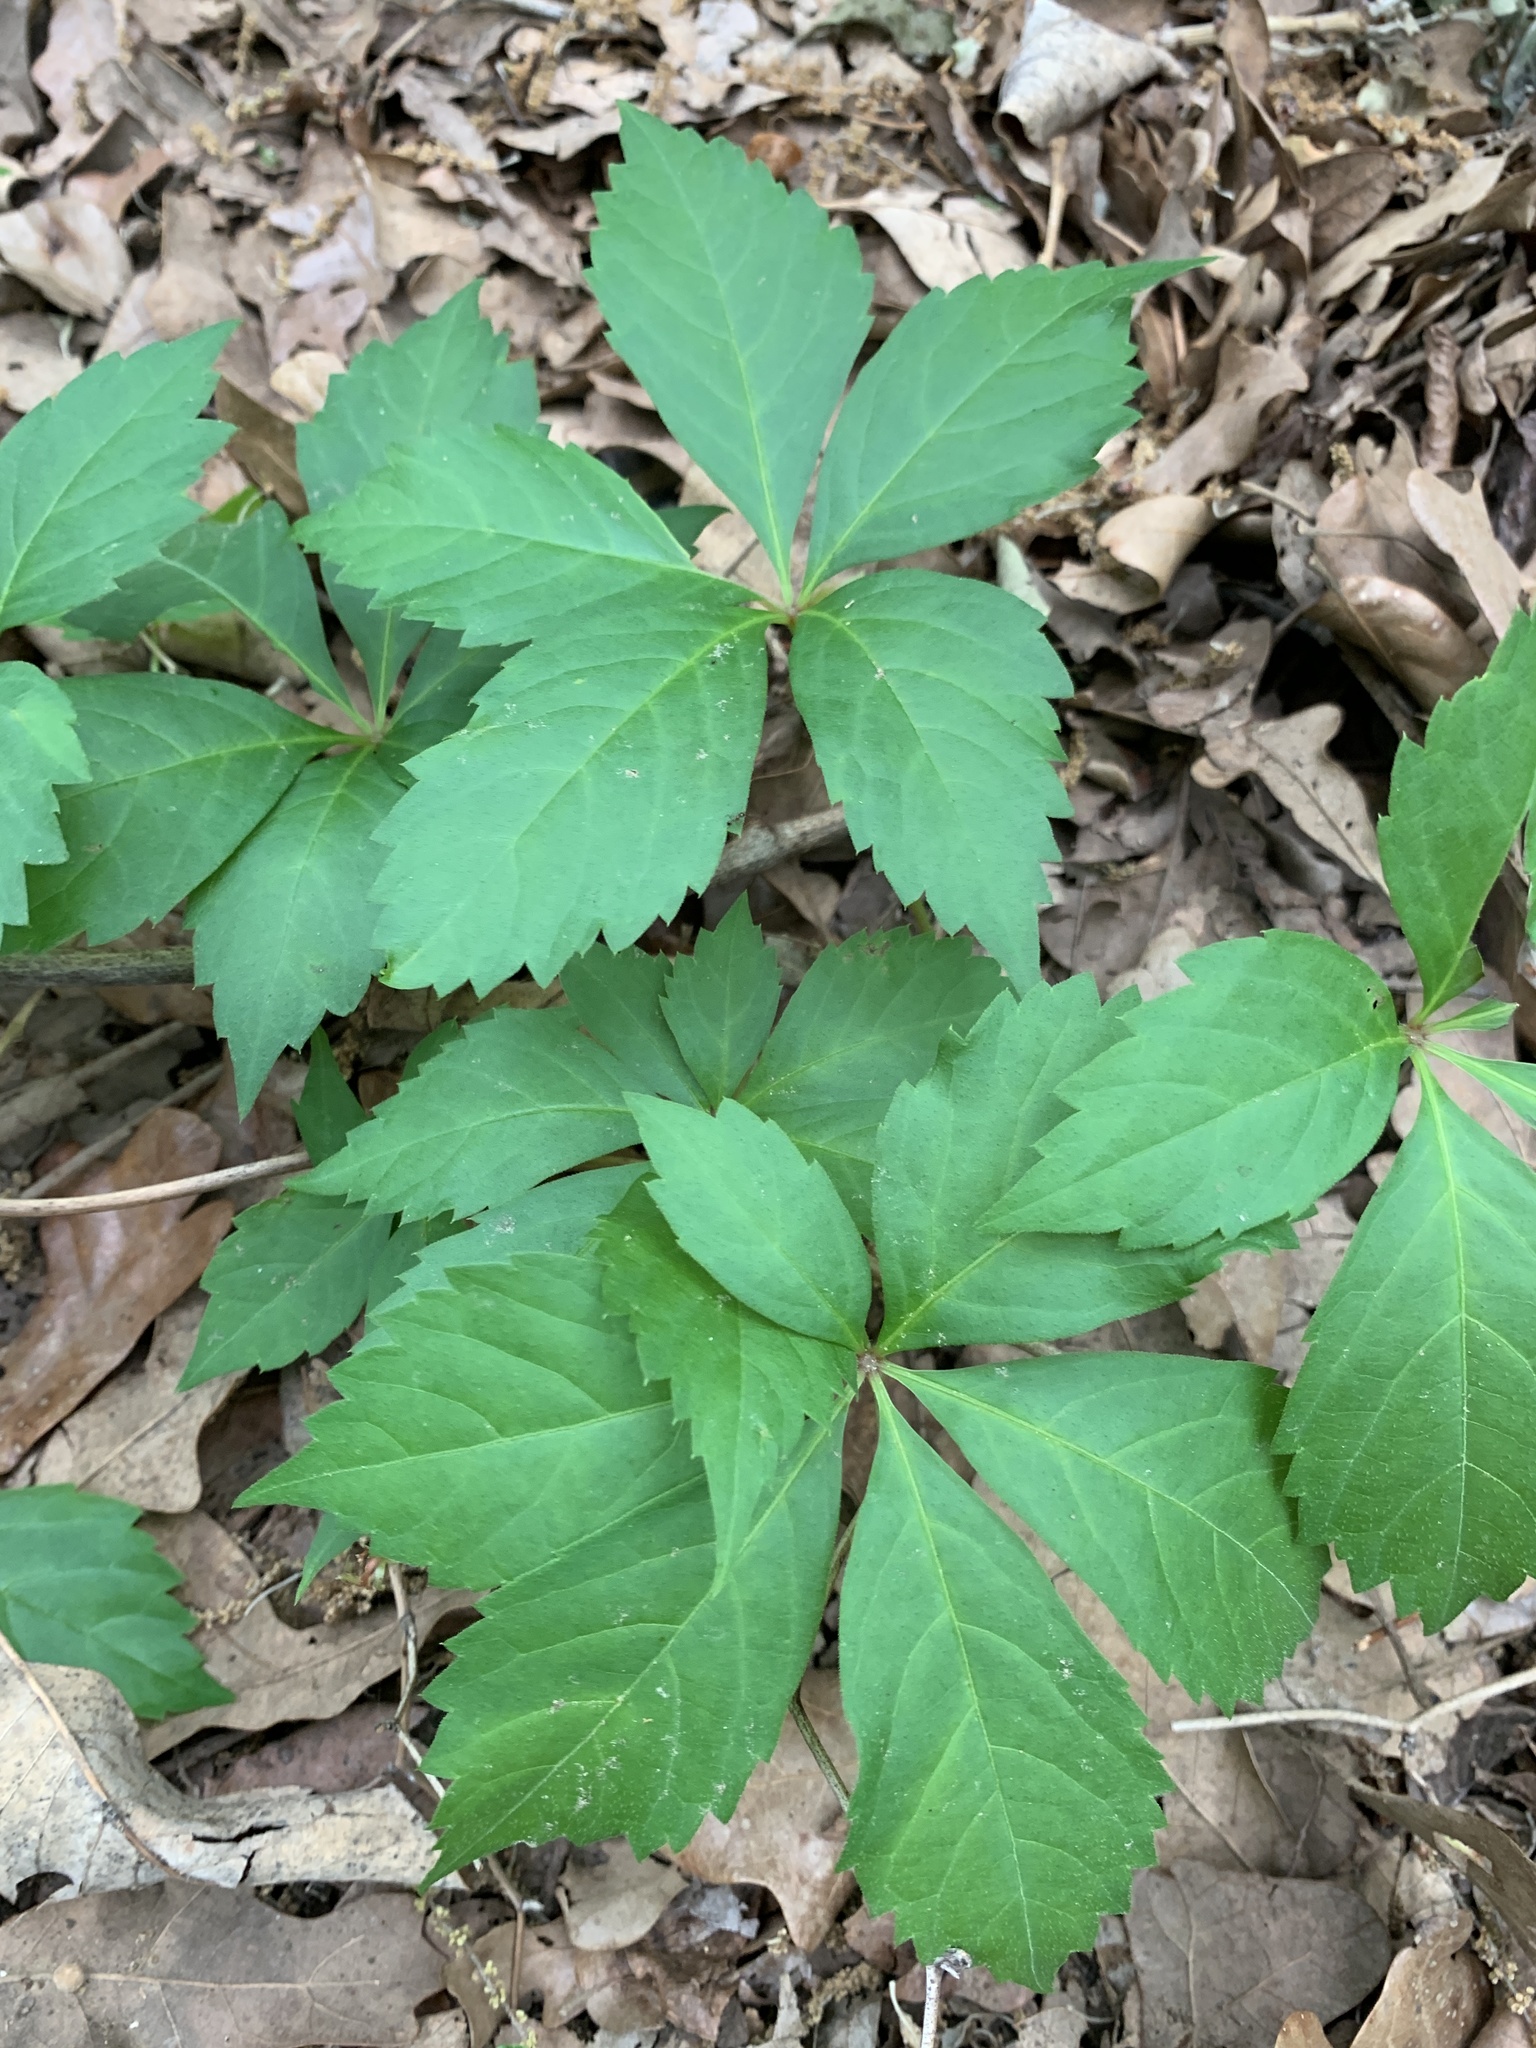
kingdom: Plantae
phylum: Tracheophyta
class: Magnoliopsida
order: Vitales
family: Vitaceae
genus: Parthenocissus
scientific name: Parthenocissus quinquefolia
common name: Virginia-creeper
